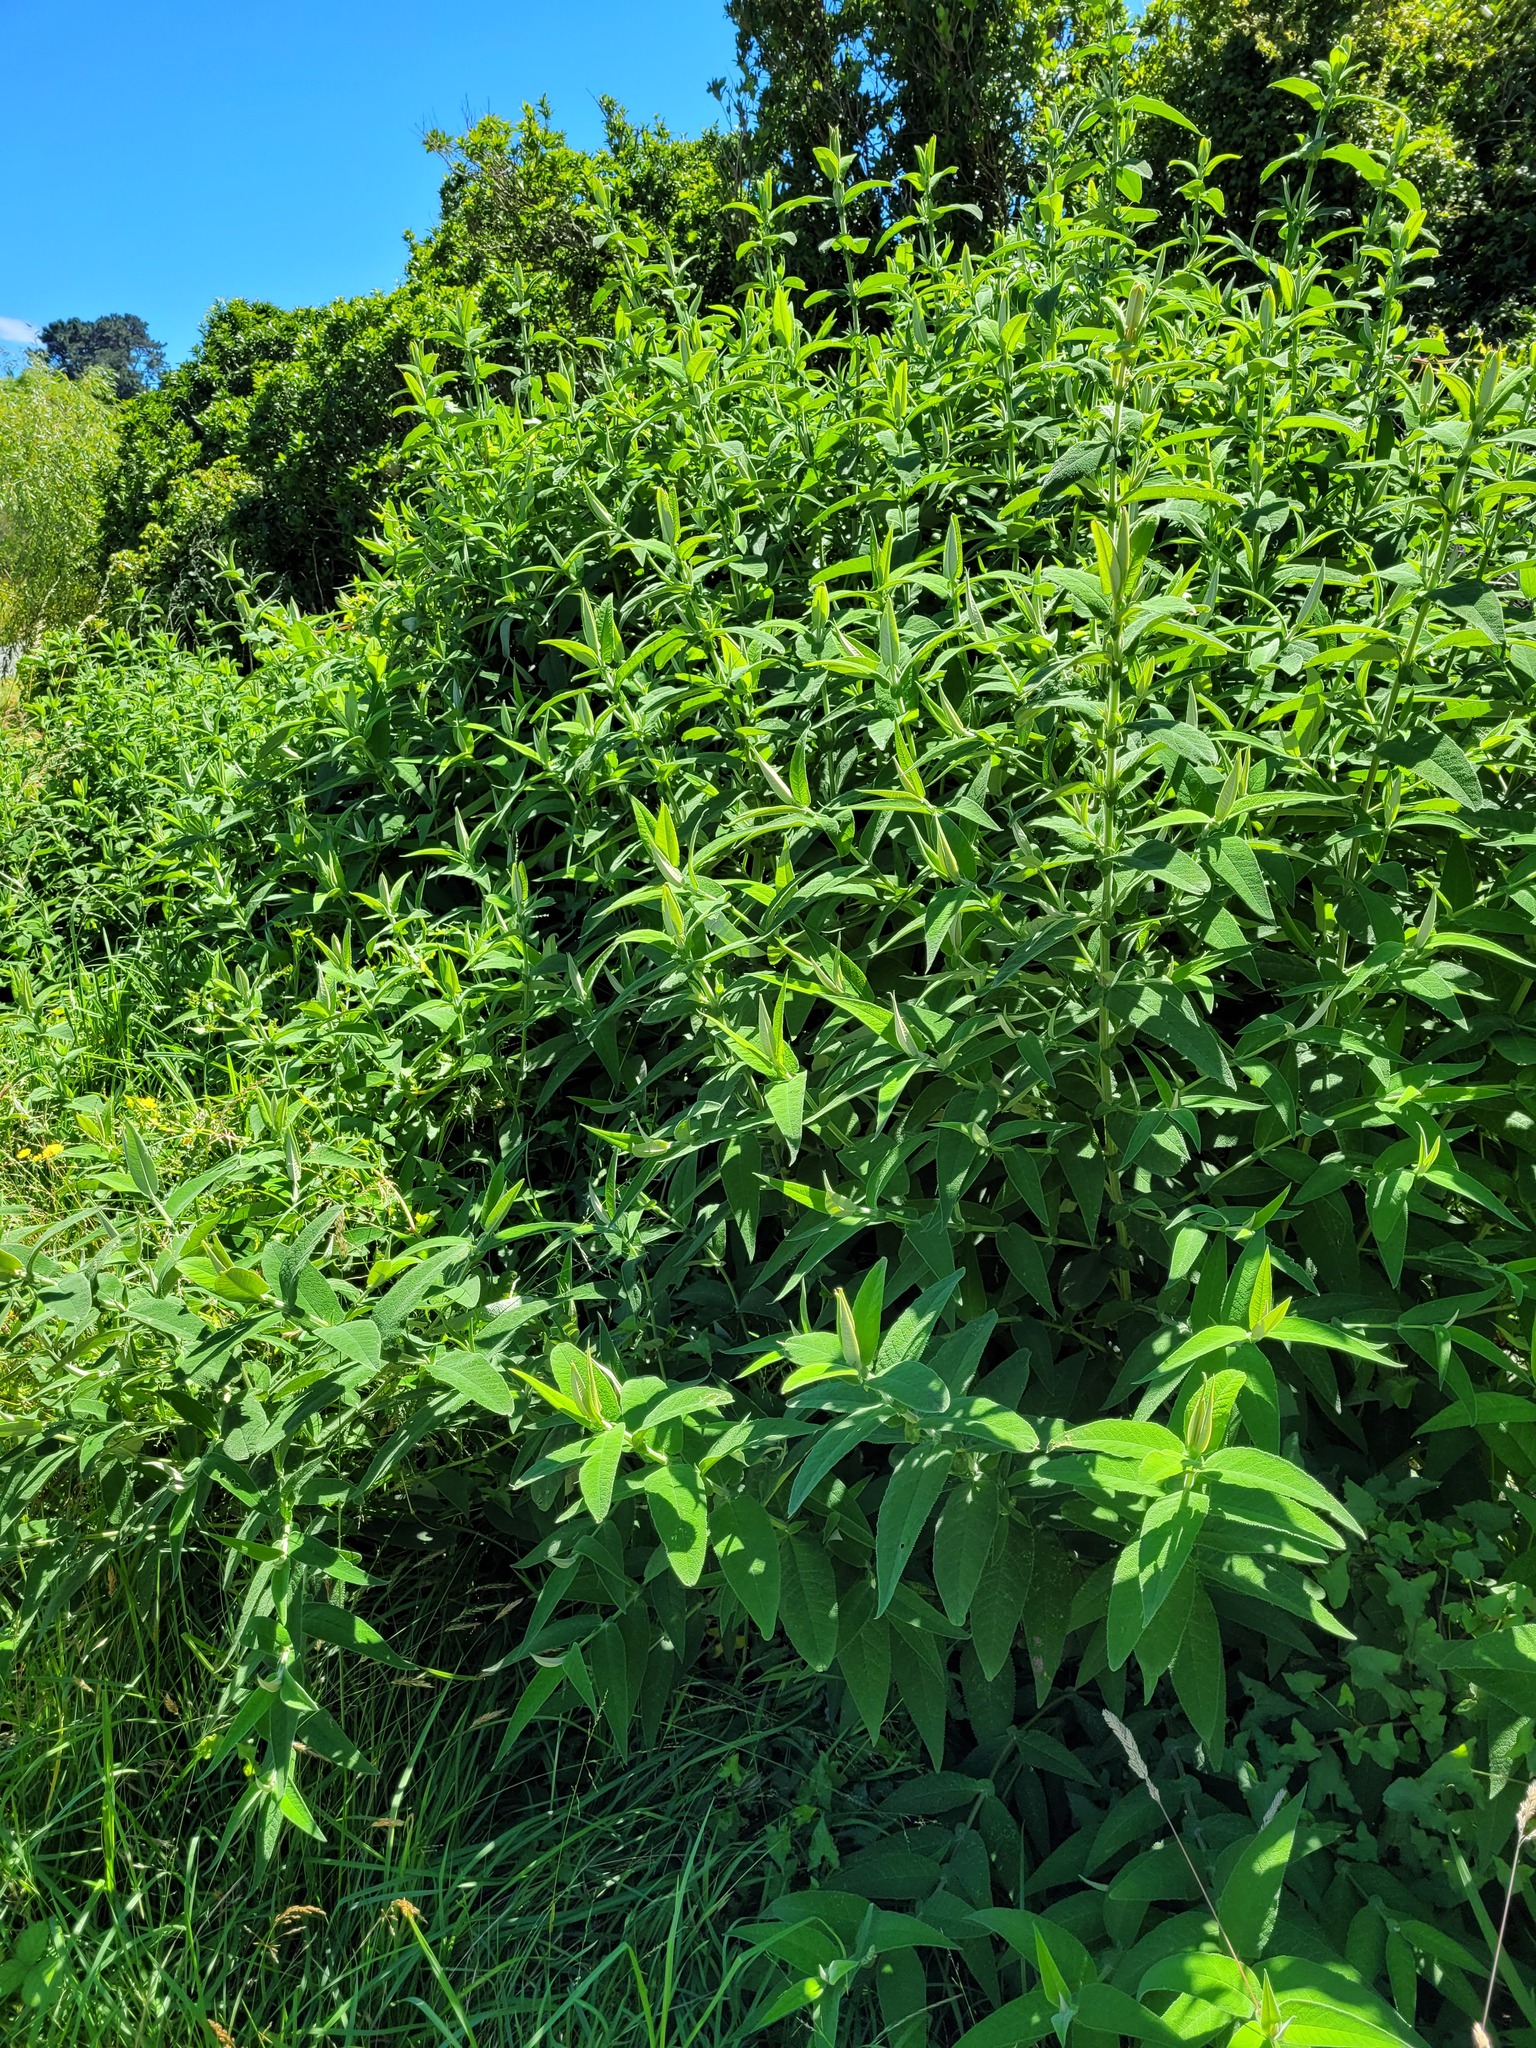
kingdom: Plantae
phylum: Tracheophyta
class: Magnoliopsida
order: Lamiales
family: Scrophulariaceae
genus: Buddleja
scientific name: Buddleja salviifolia
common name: Sagewood
